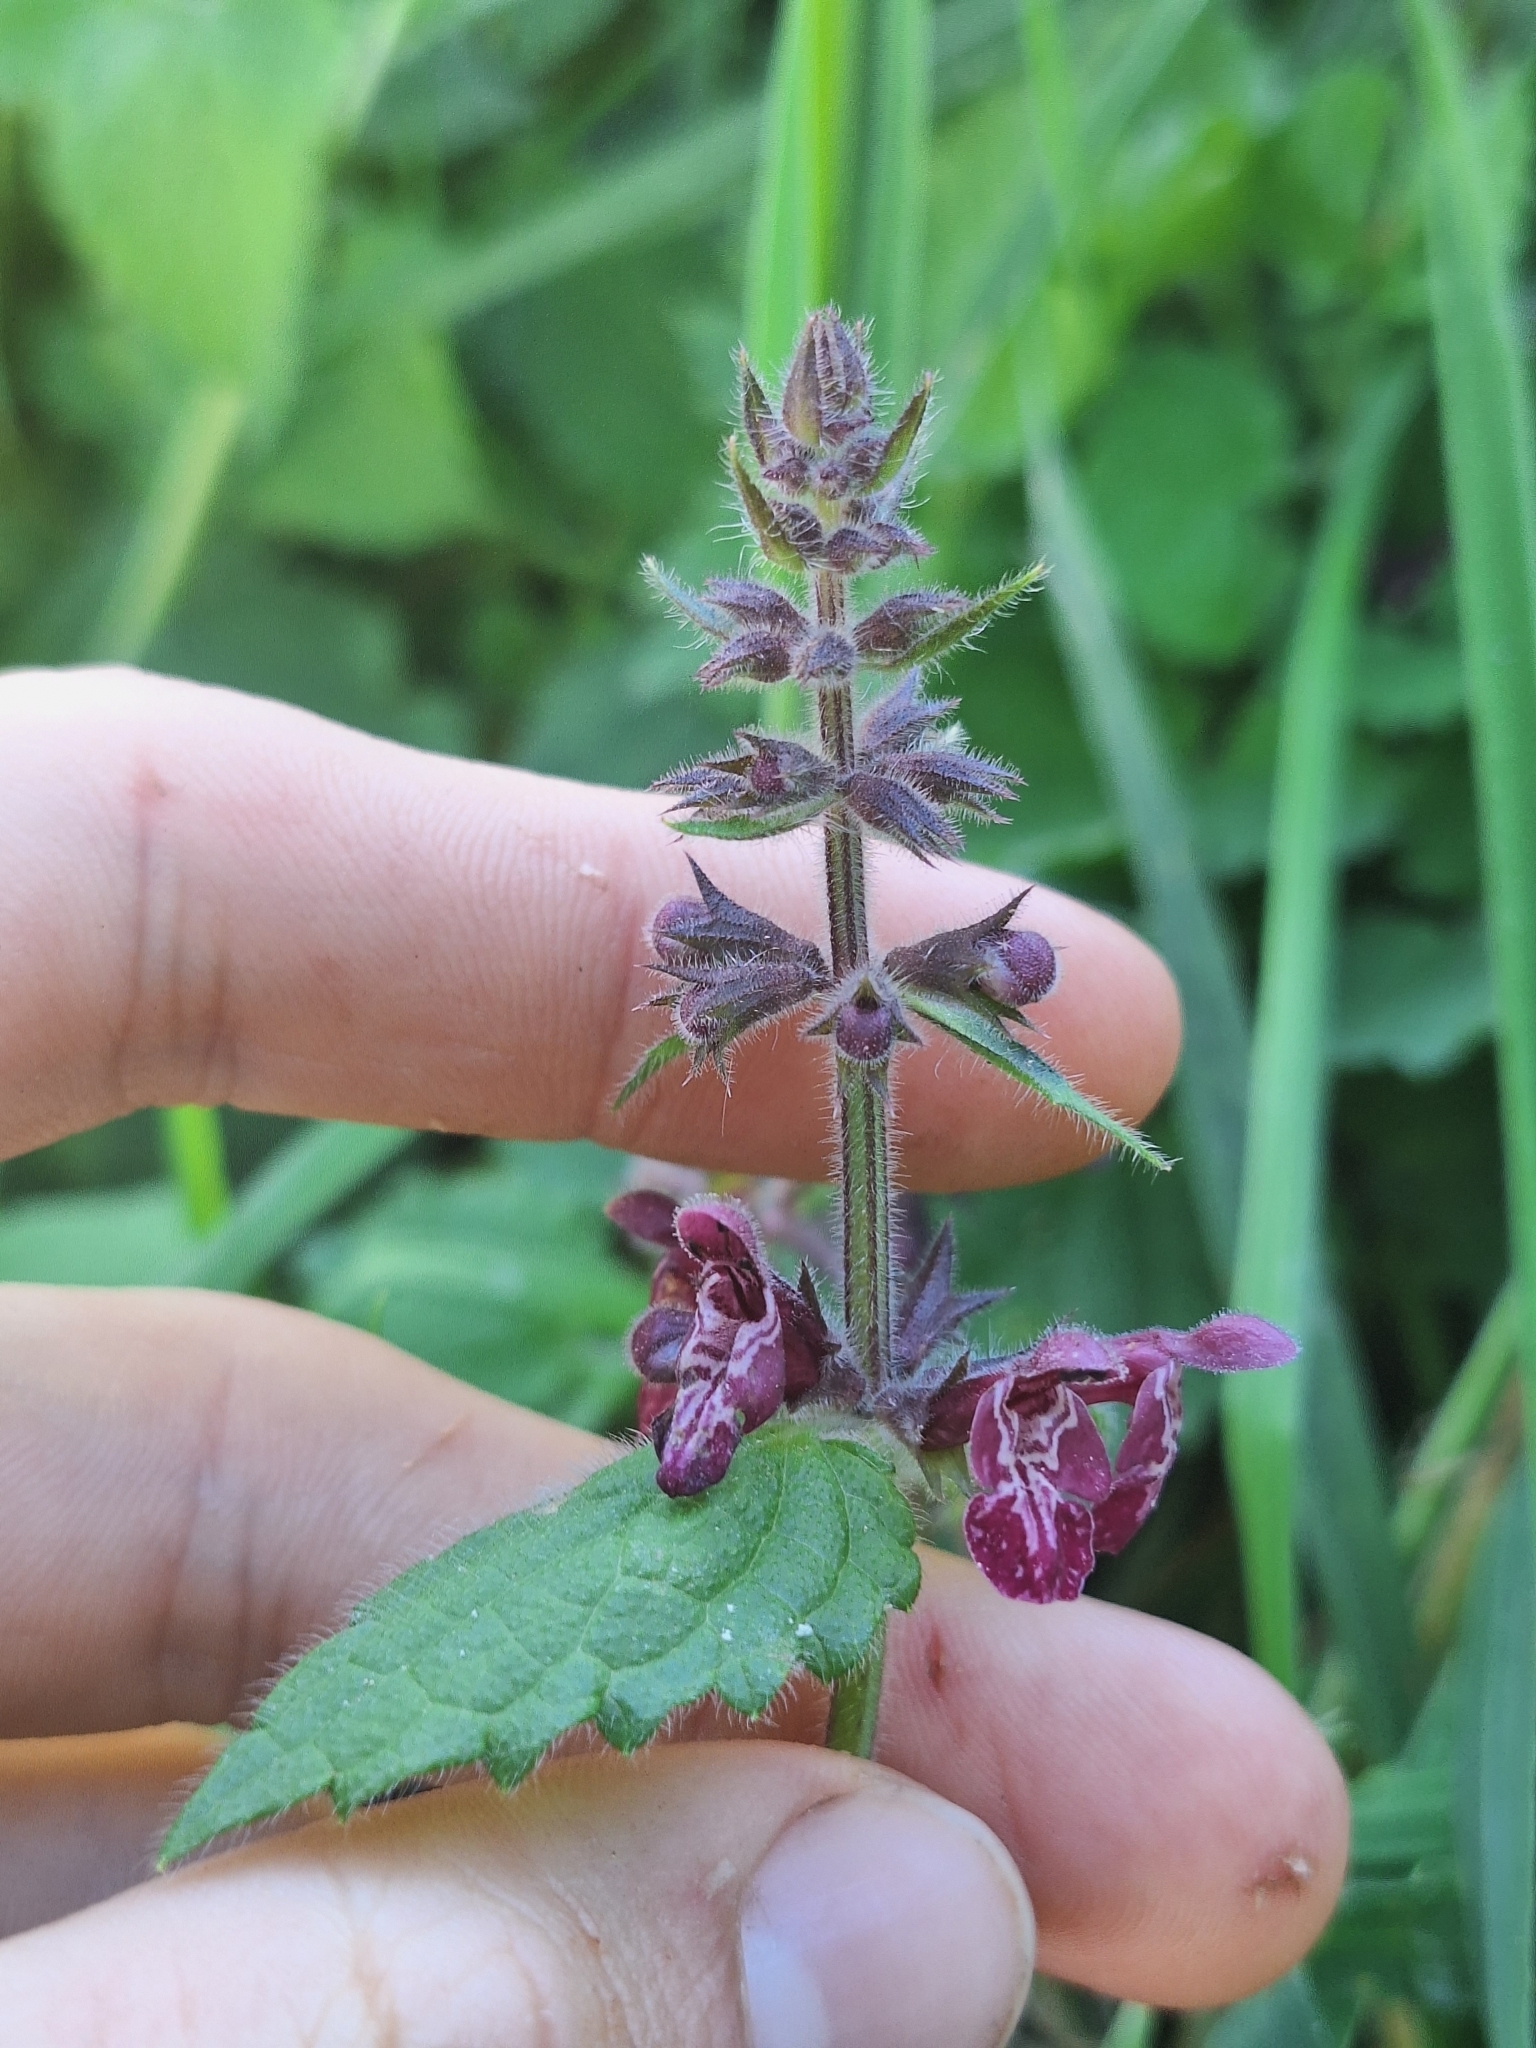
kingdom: Plantae
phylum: Tracheophyta
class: Magnoliopsida
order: Lamiales
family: Lamiaceae
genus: Stachys
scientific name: Stachys sylvatica
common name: Hedge woundwort
